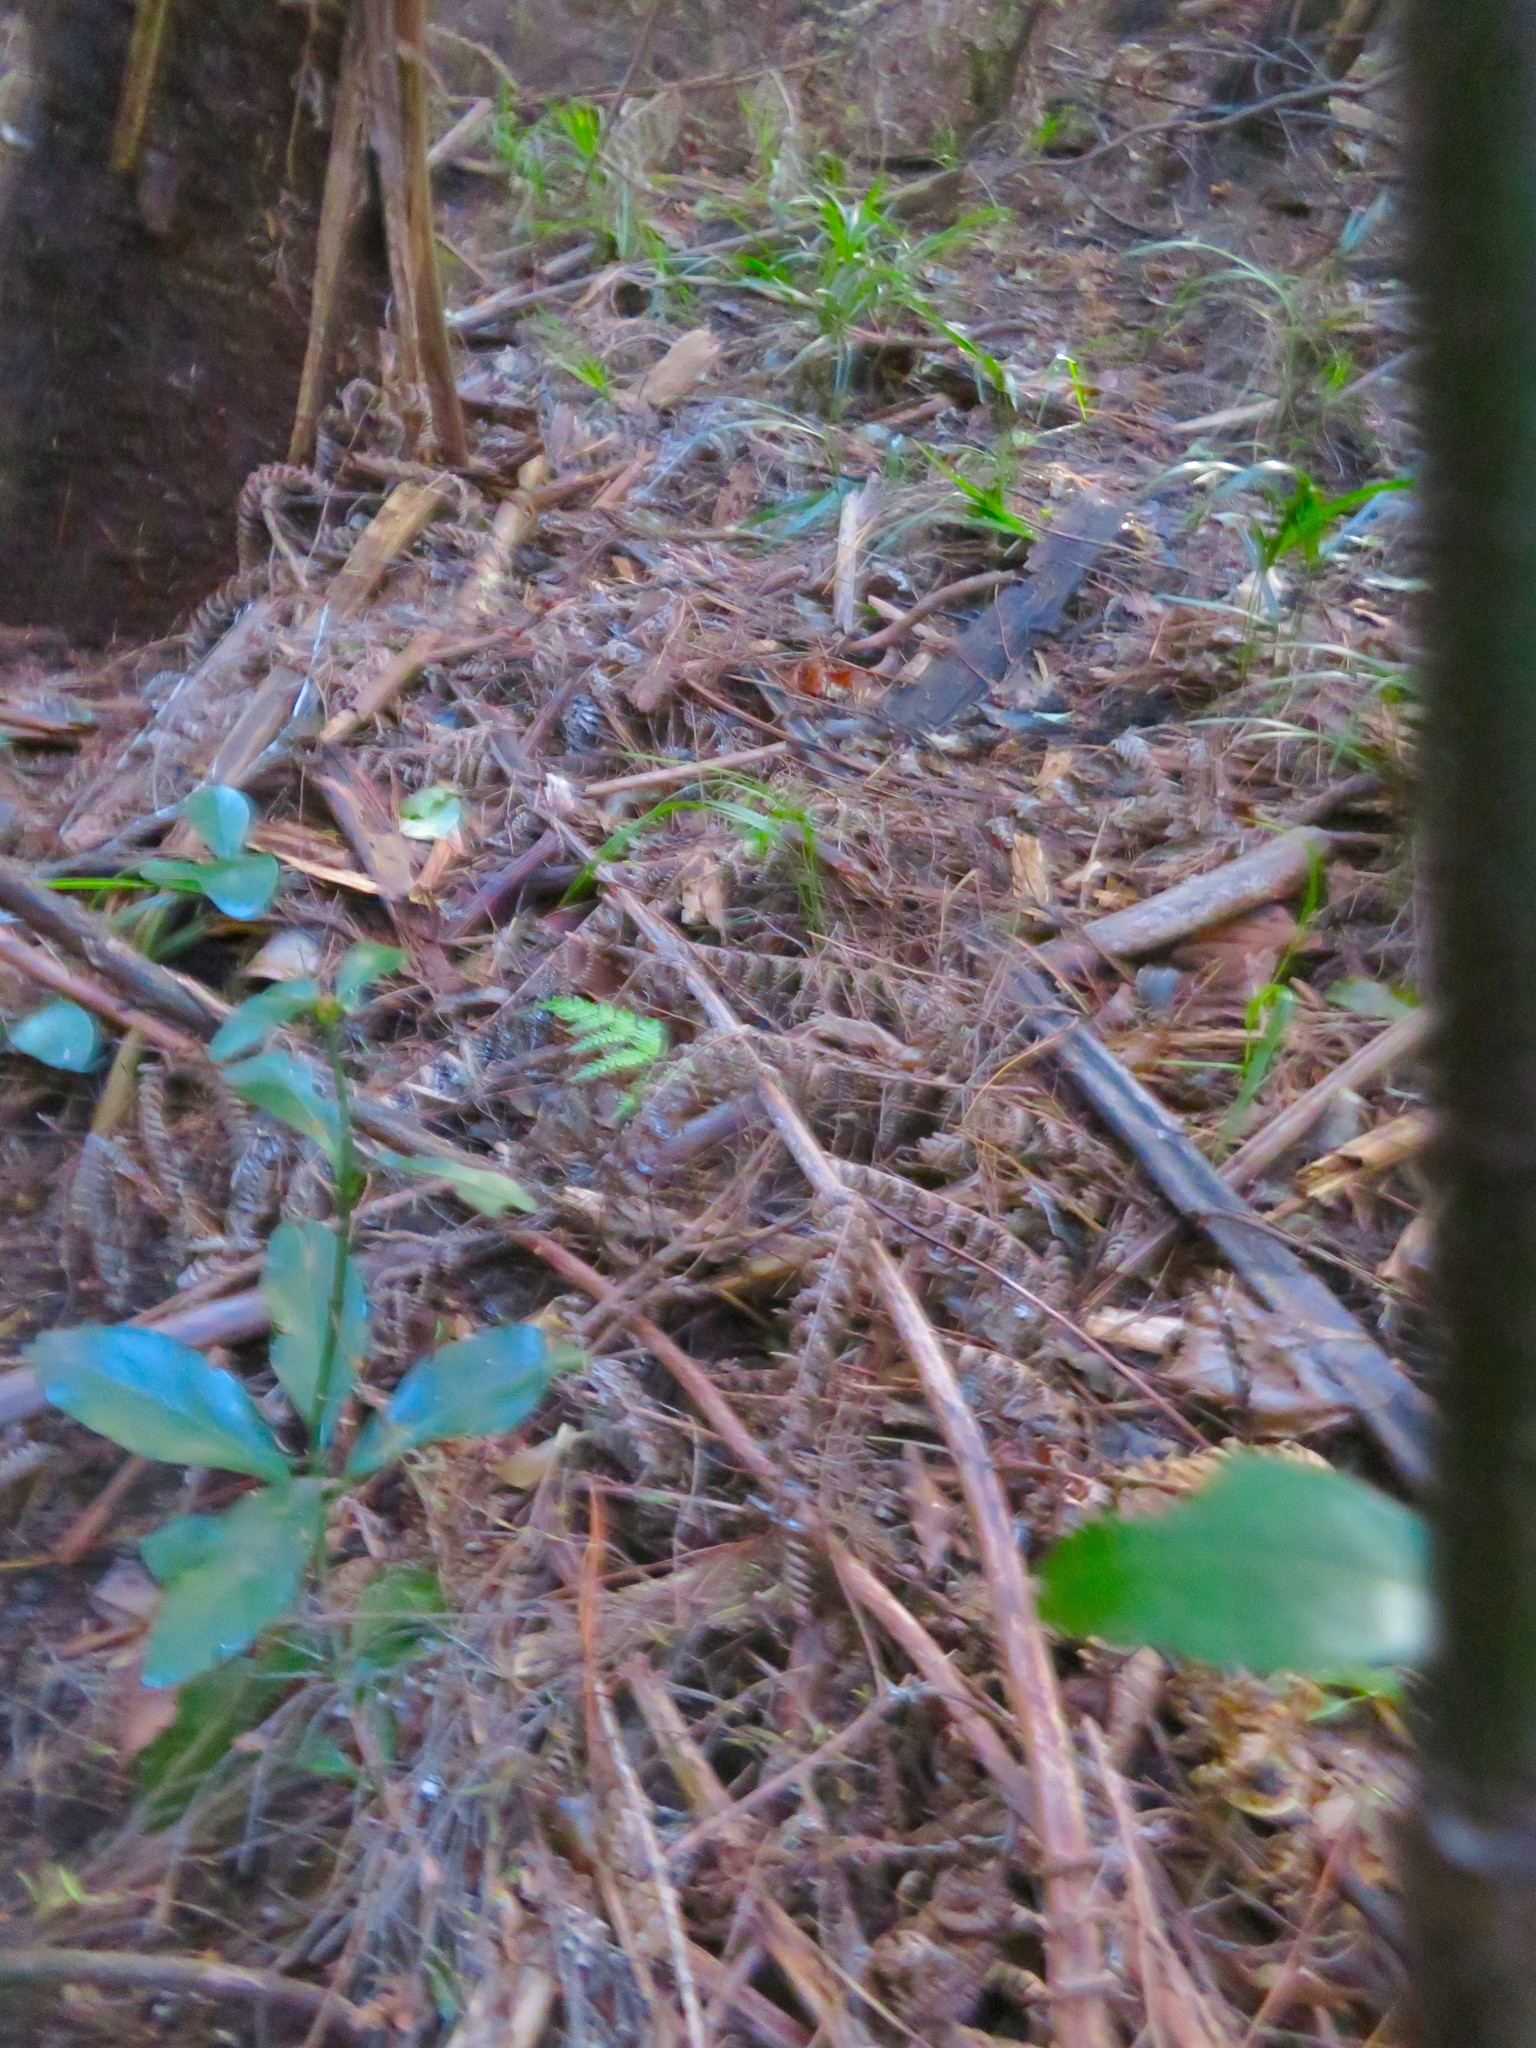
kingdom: Plantae
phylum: Tracheophyta
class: Magnoliopsida
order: Celastrales
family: Celastraceae
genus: Euonymus
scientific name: Euonymus japonicus
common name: Japanese spindletree
